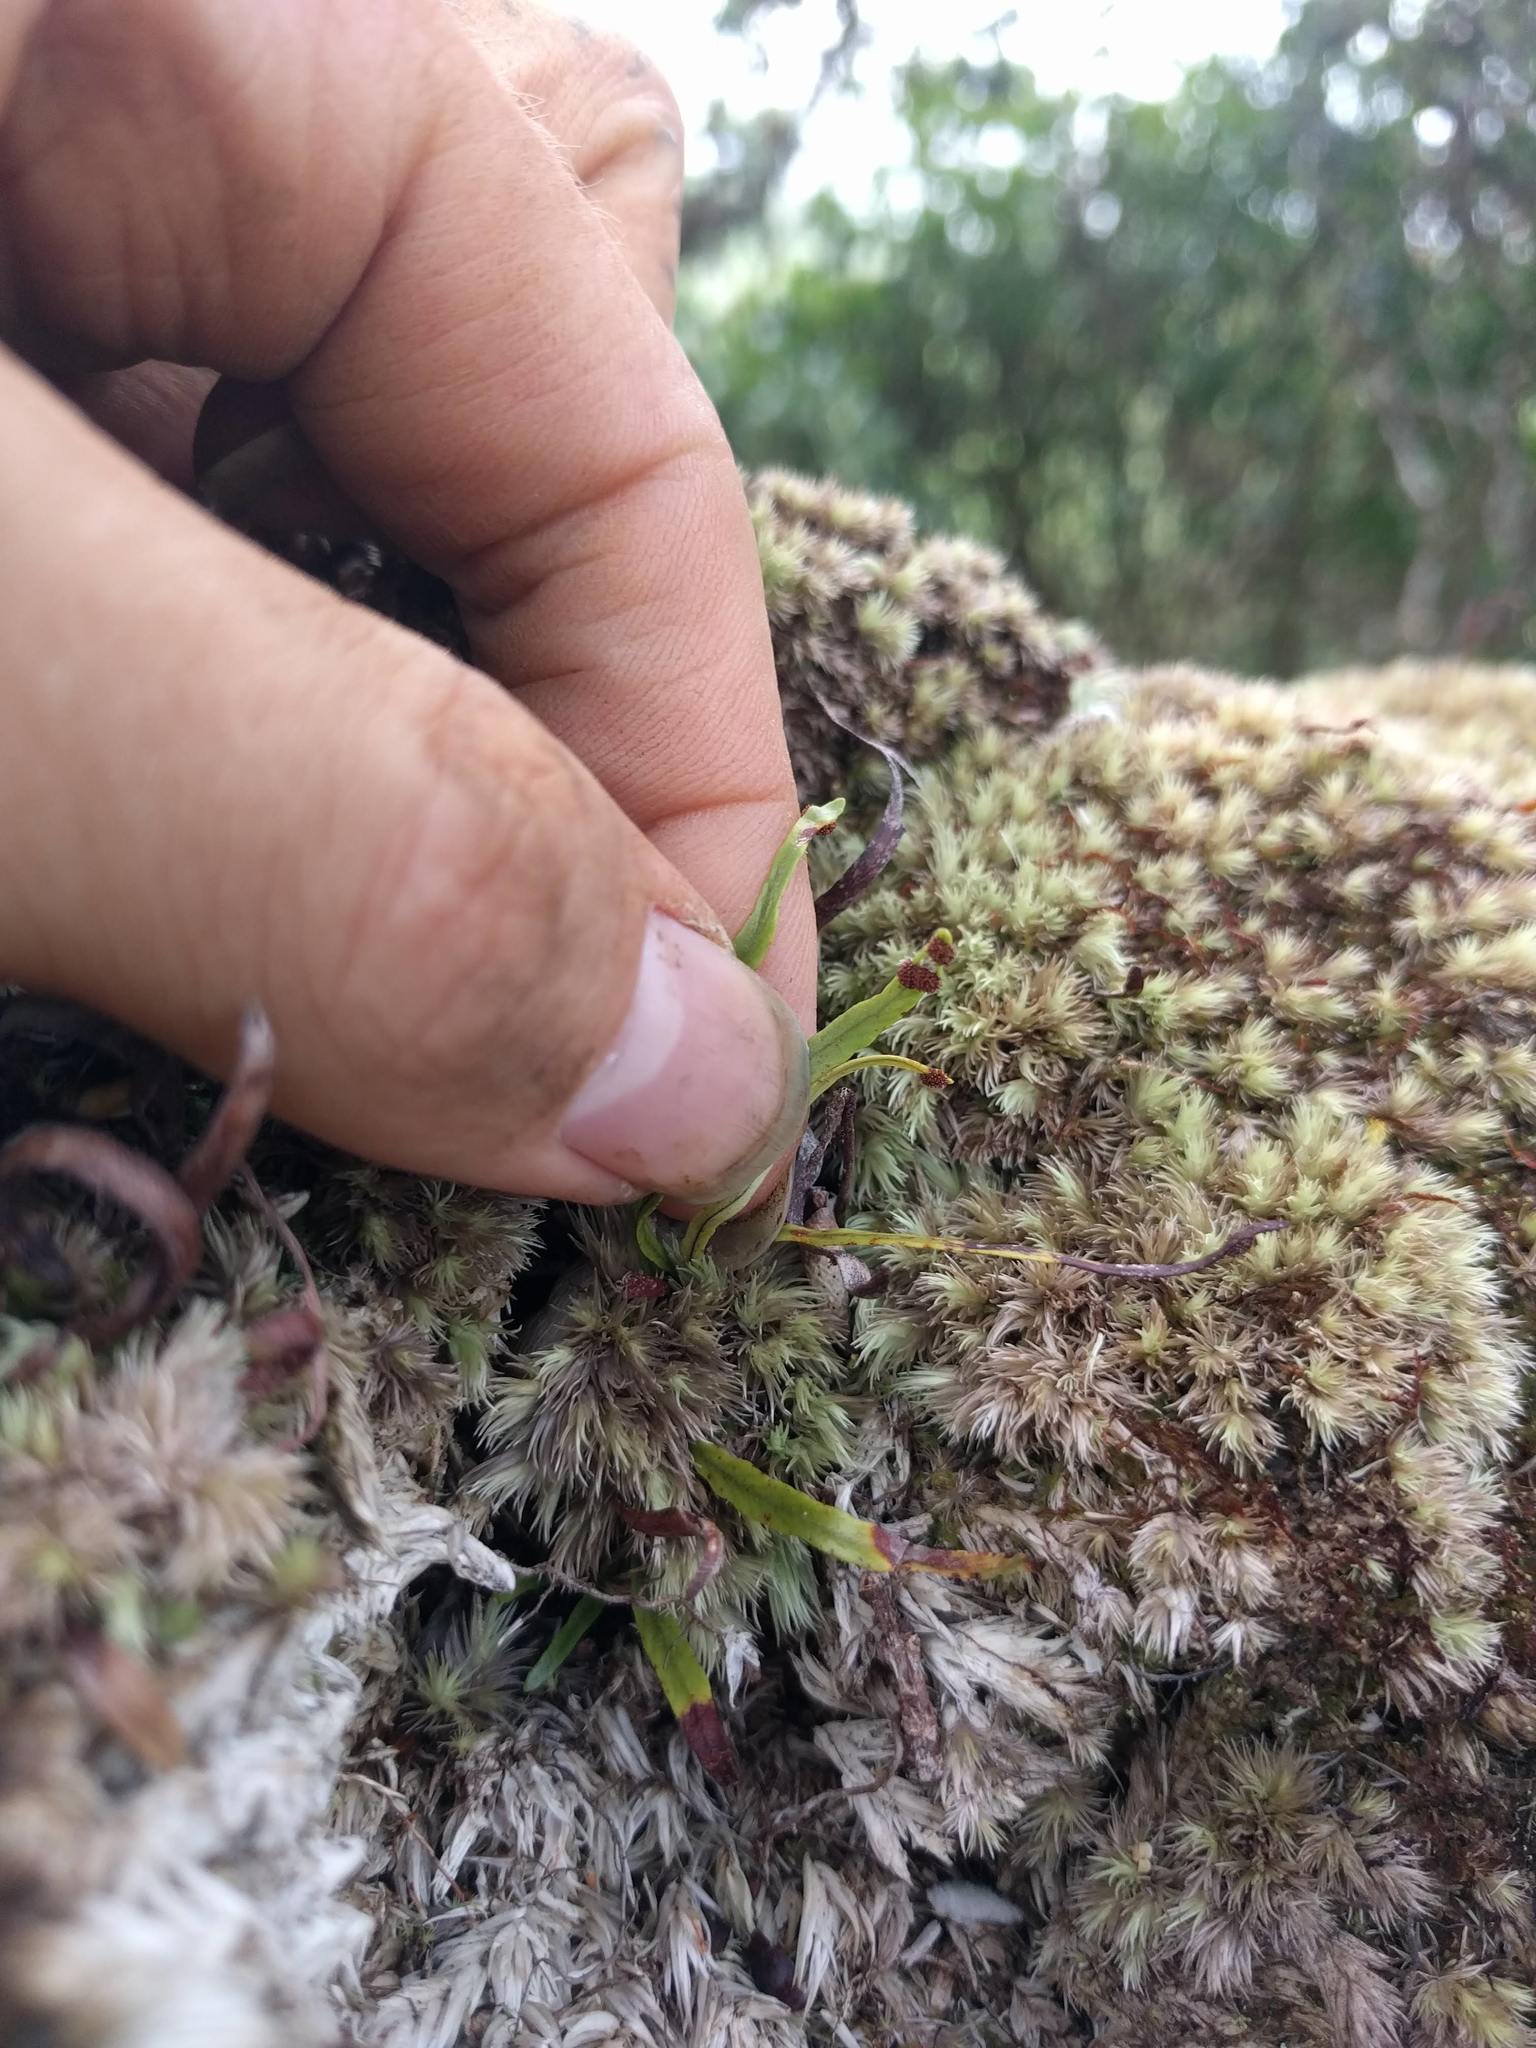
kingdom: Plantae
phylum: Tracheophyta
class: Polypodiopsida
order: Polypodiales
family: Polypodiaceae
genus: Adenophorus
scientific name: Adenophorus tenellus
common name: Kolokolo
